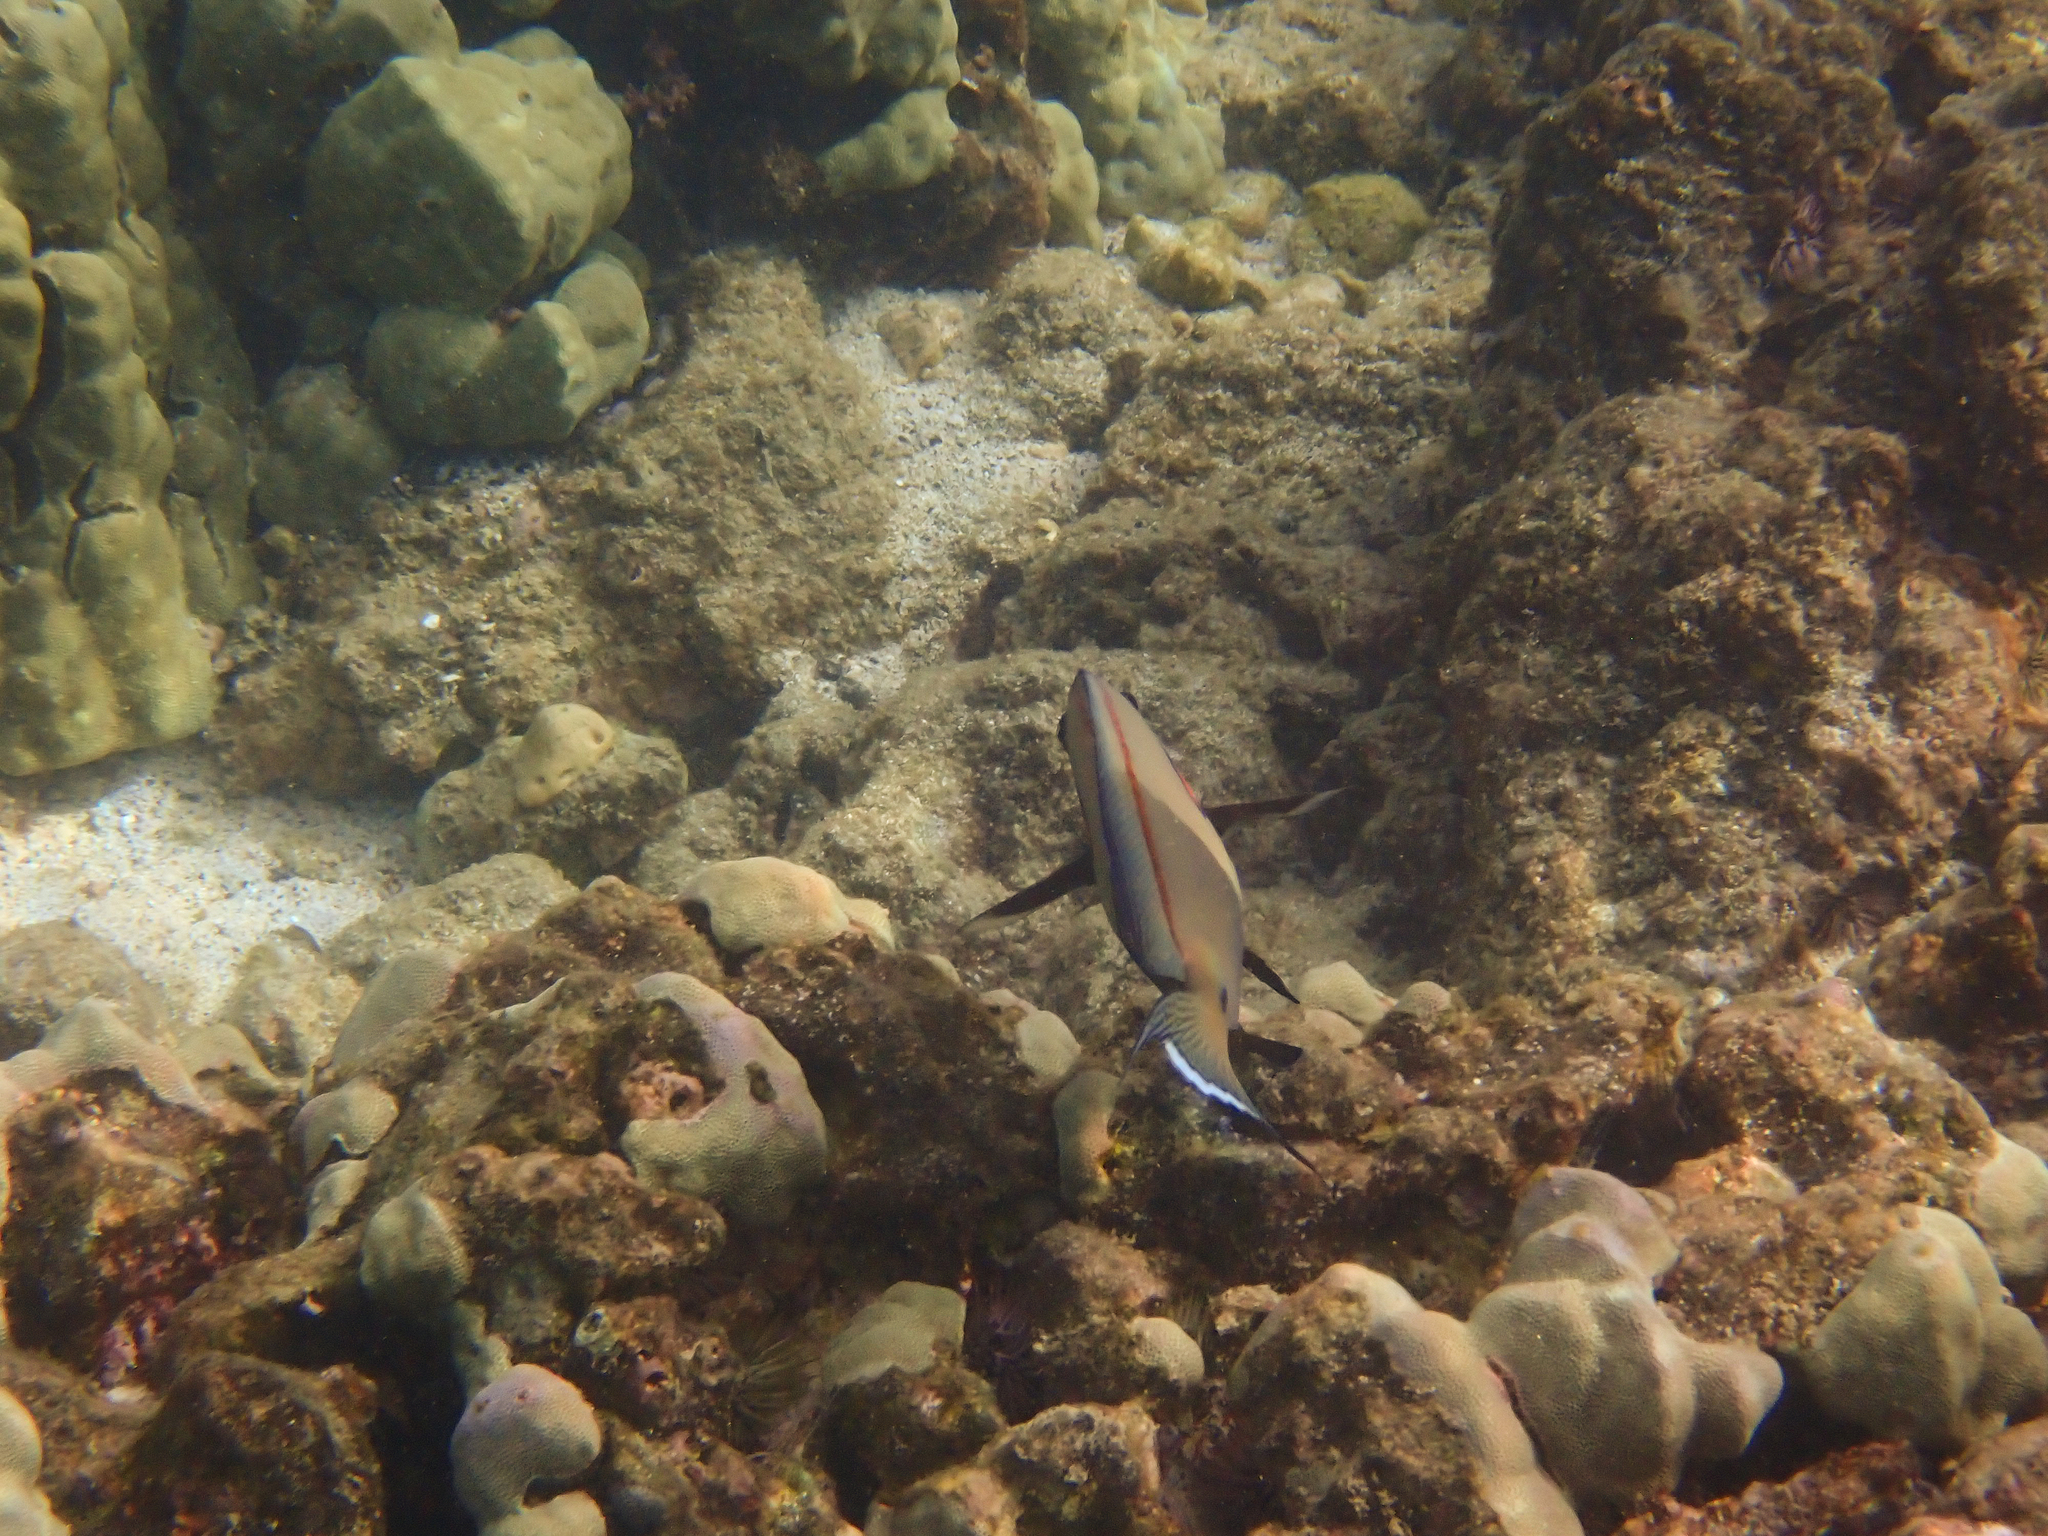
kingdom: Animalia
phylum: Chordata
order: Perciformes
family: Acanthuridae
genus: Acanthurus
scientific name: Acanthurus nigrofuscus
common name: Blackspot surgeonfish
